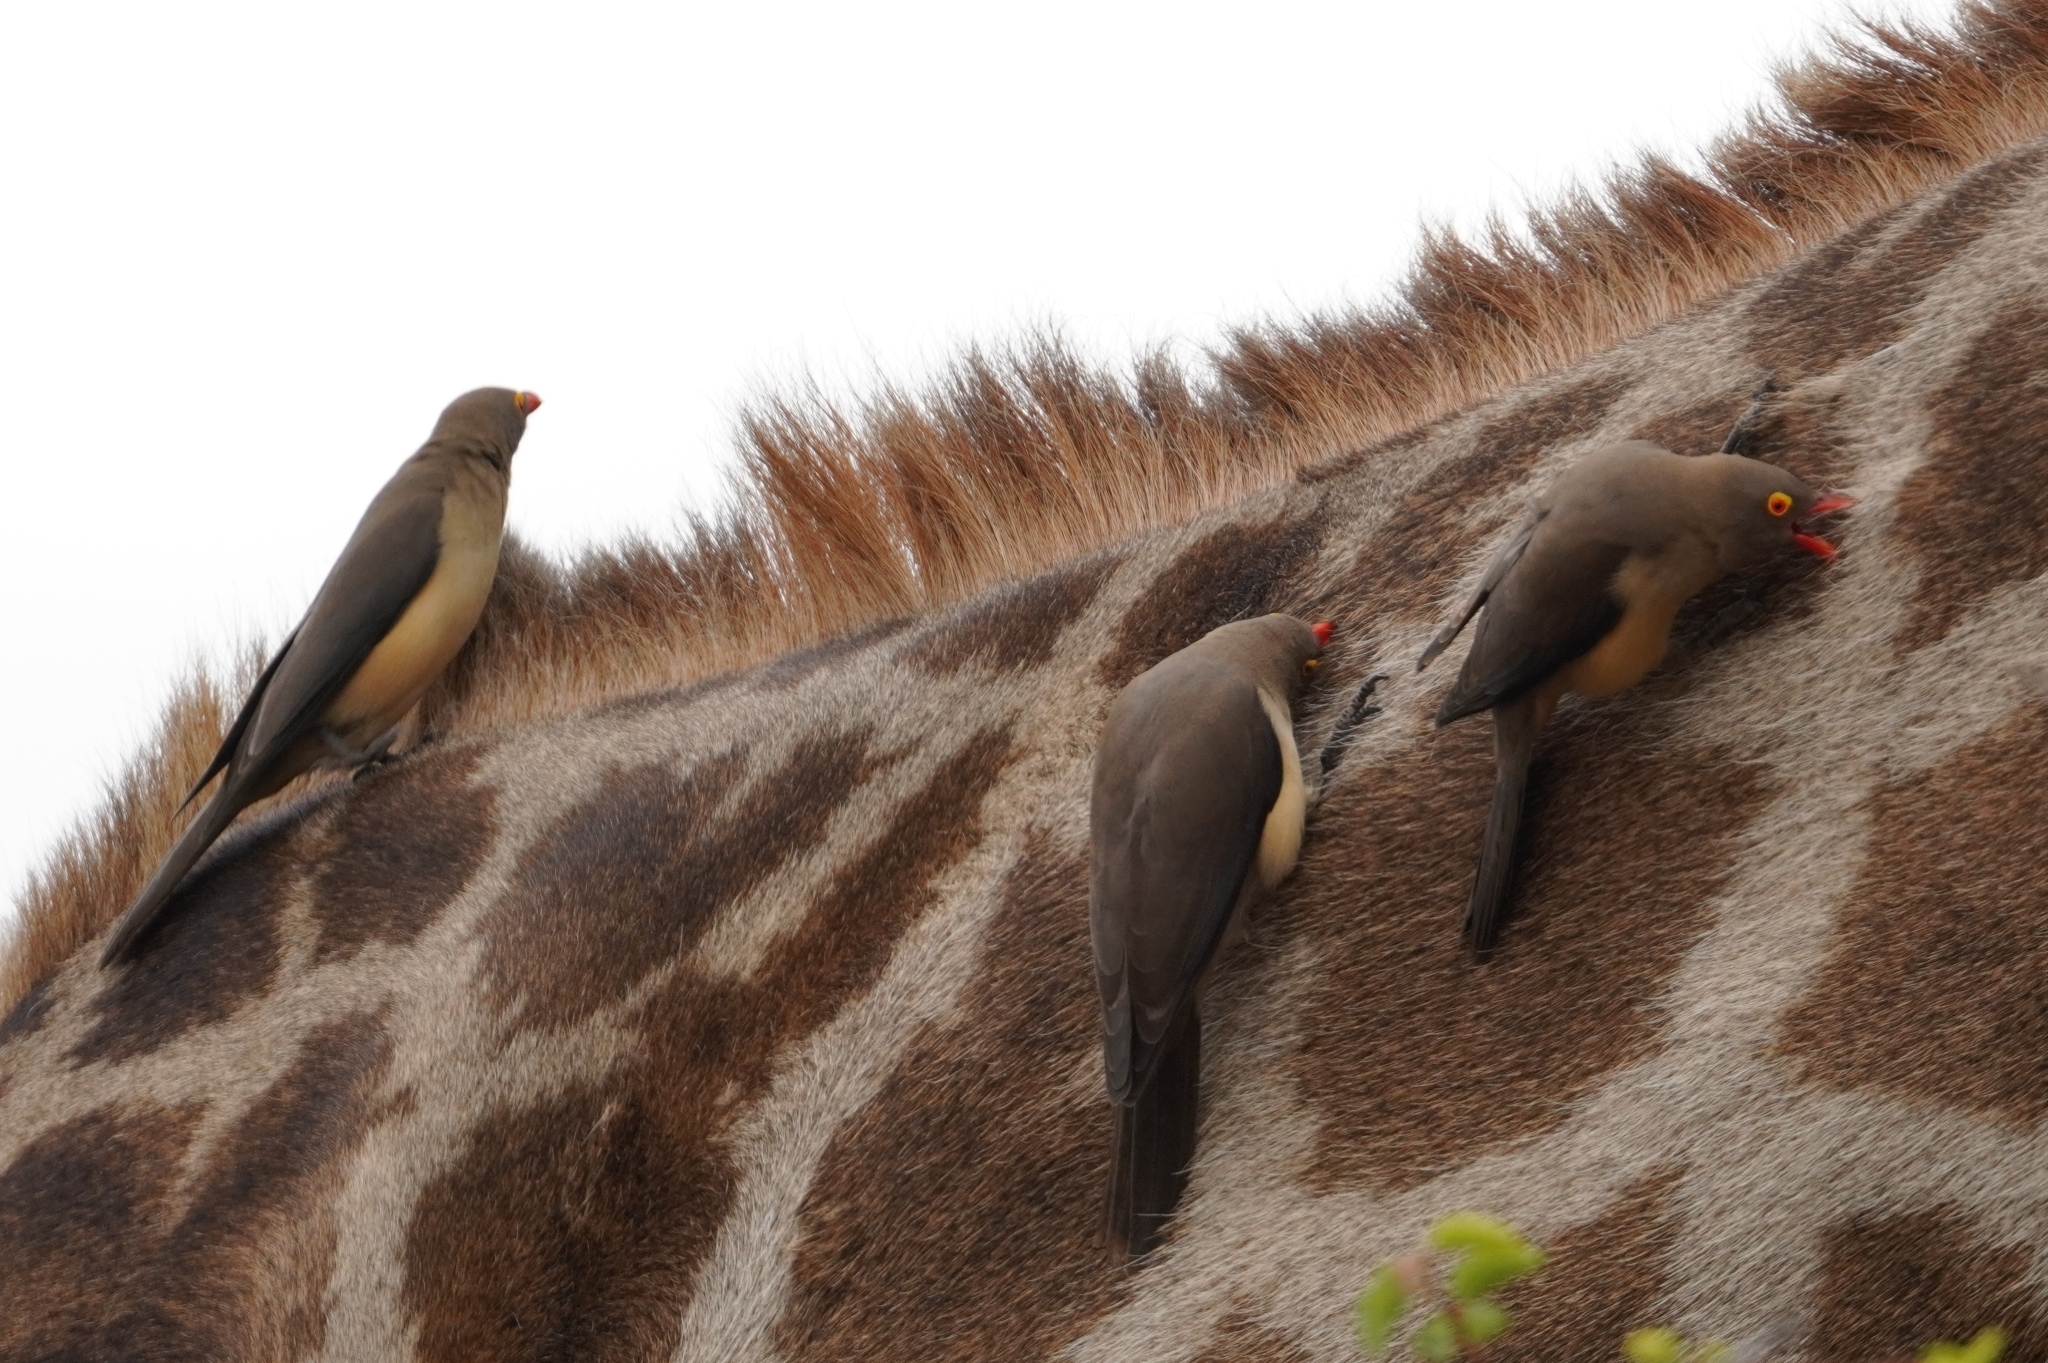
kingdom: Animalia
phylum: Chordata
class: Aves
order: Passeriformes
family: Buphagidae
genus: Buphagus
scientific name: Buphagus erythrorhynchus
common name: Red-billed oxpecker
